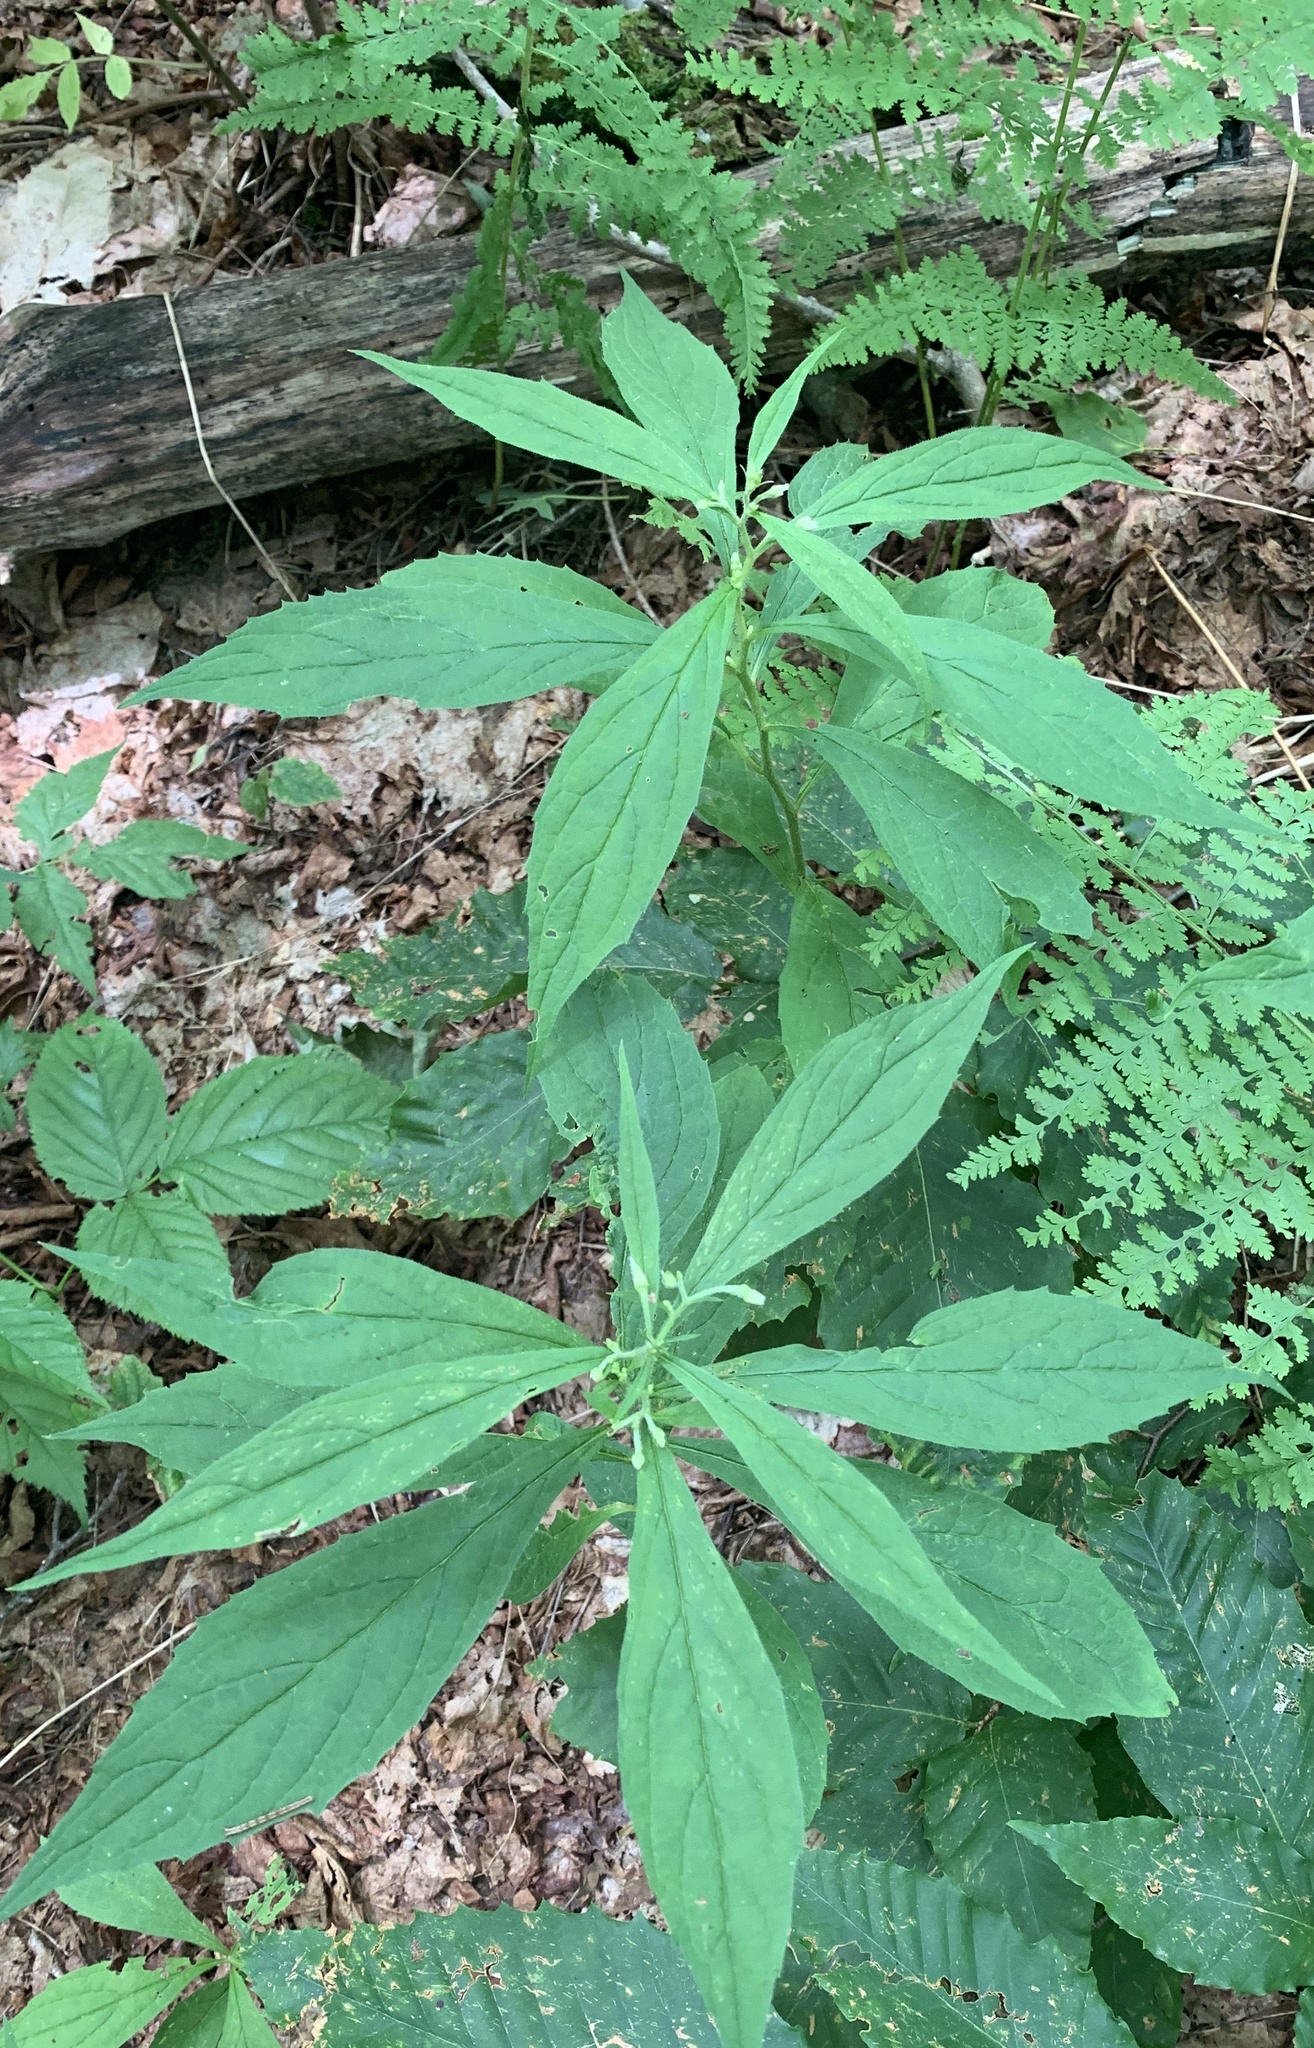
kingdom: Plantae
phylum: Tracheophyta
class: Magnoliopsida
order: Asterales
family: Asteraceae
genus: Oclemena
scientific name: Oclemena acuminata
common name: Mountain aster
